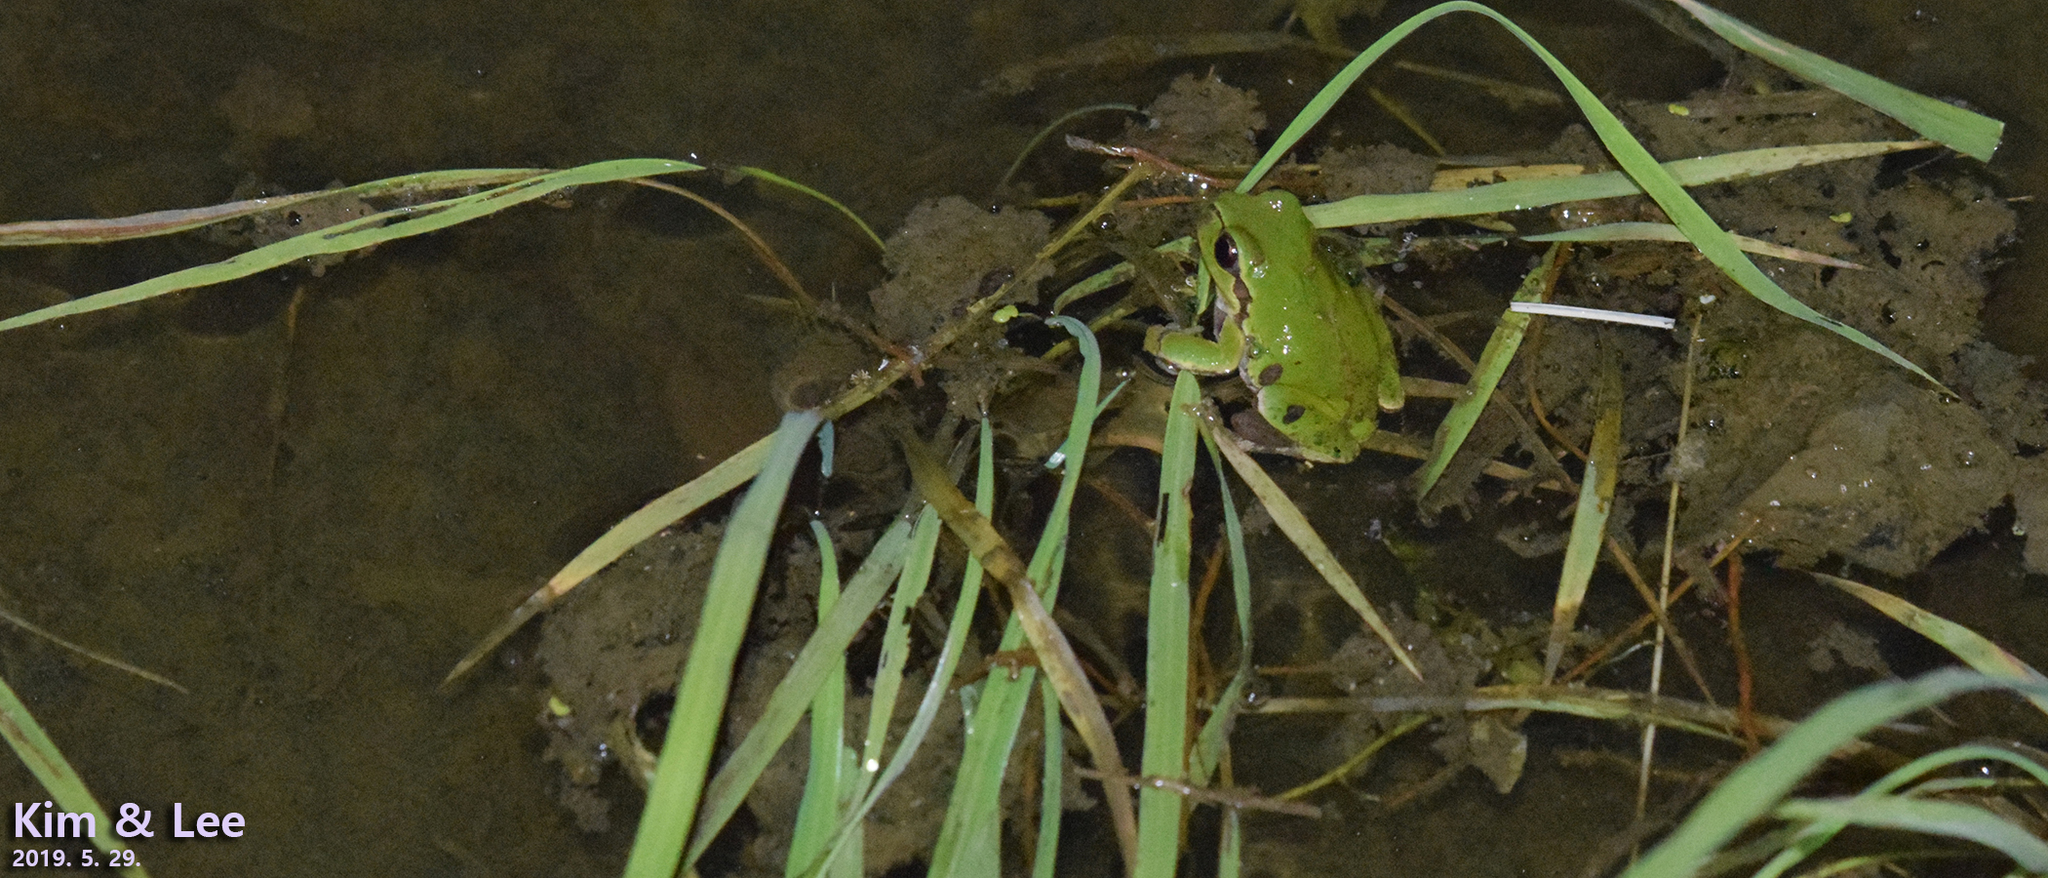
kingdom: Animalia
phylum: Chordata
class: Amphibia
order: Anura
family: Hylidae
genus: Dryophytes
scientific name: Dryophytes japonicus
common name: Japanese treefrog
